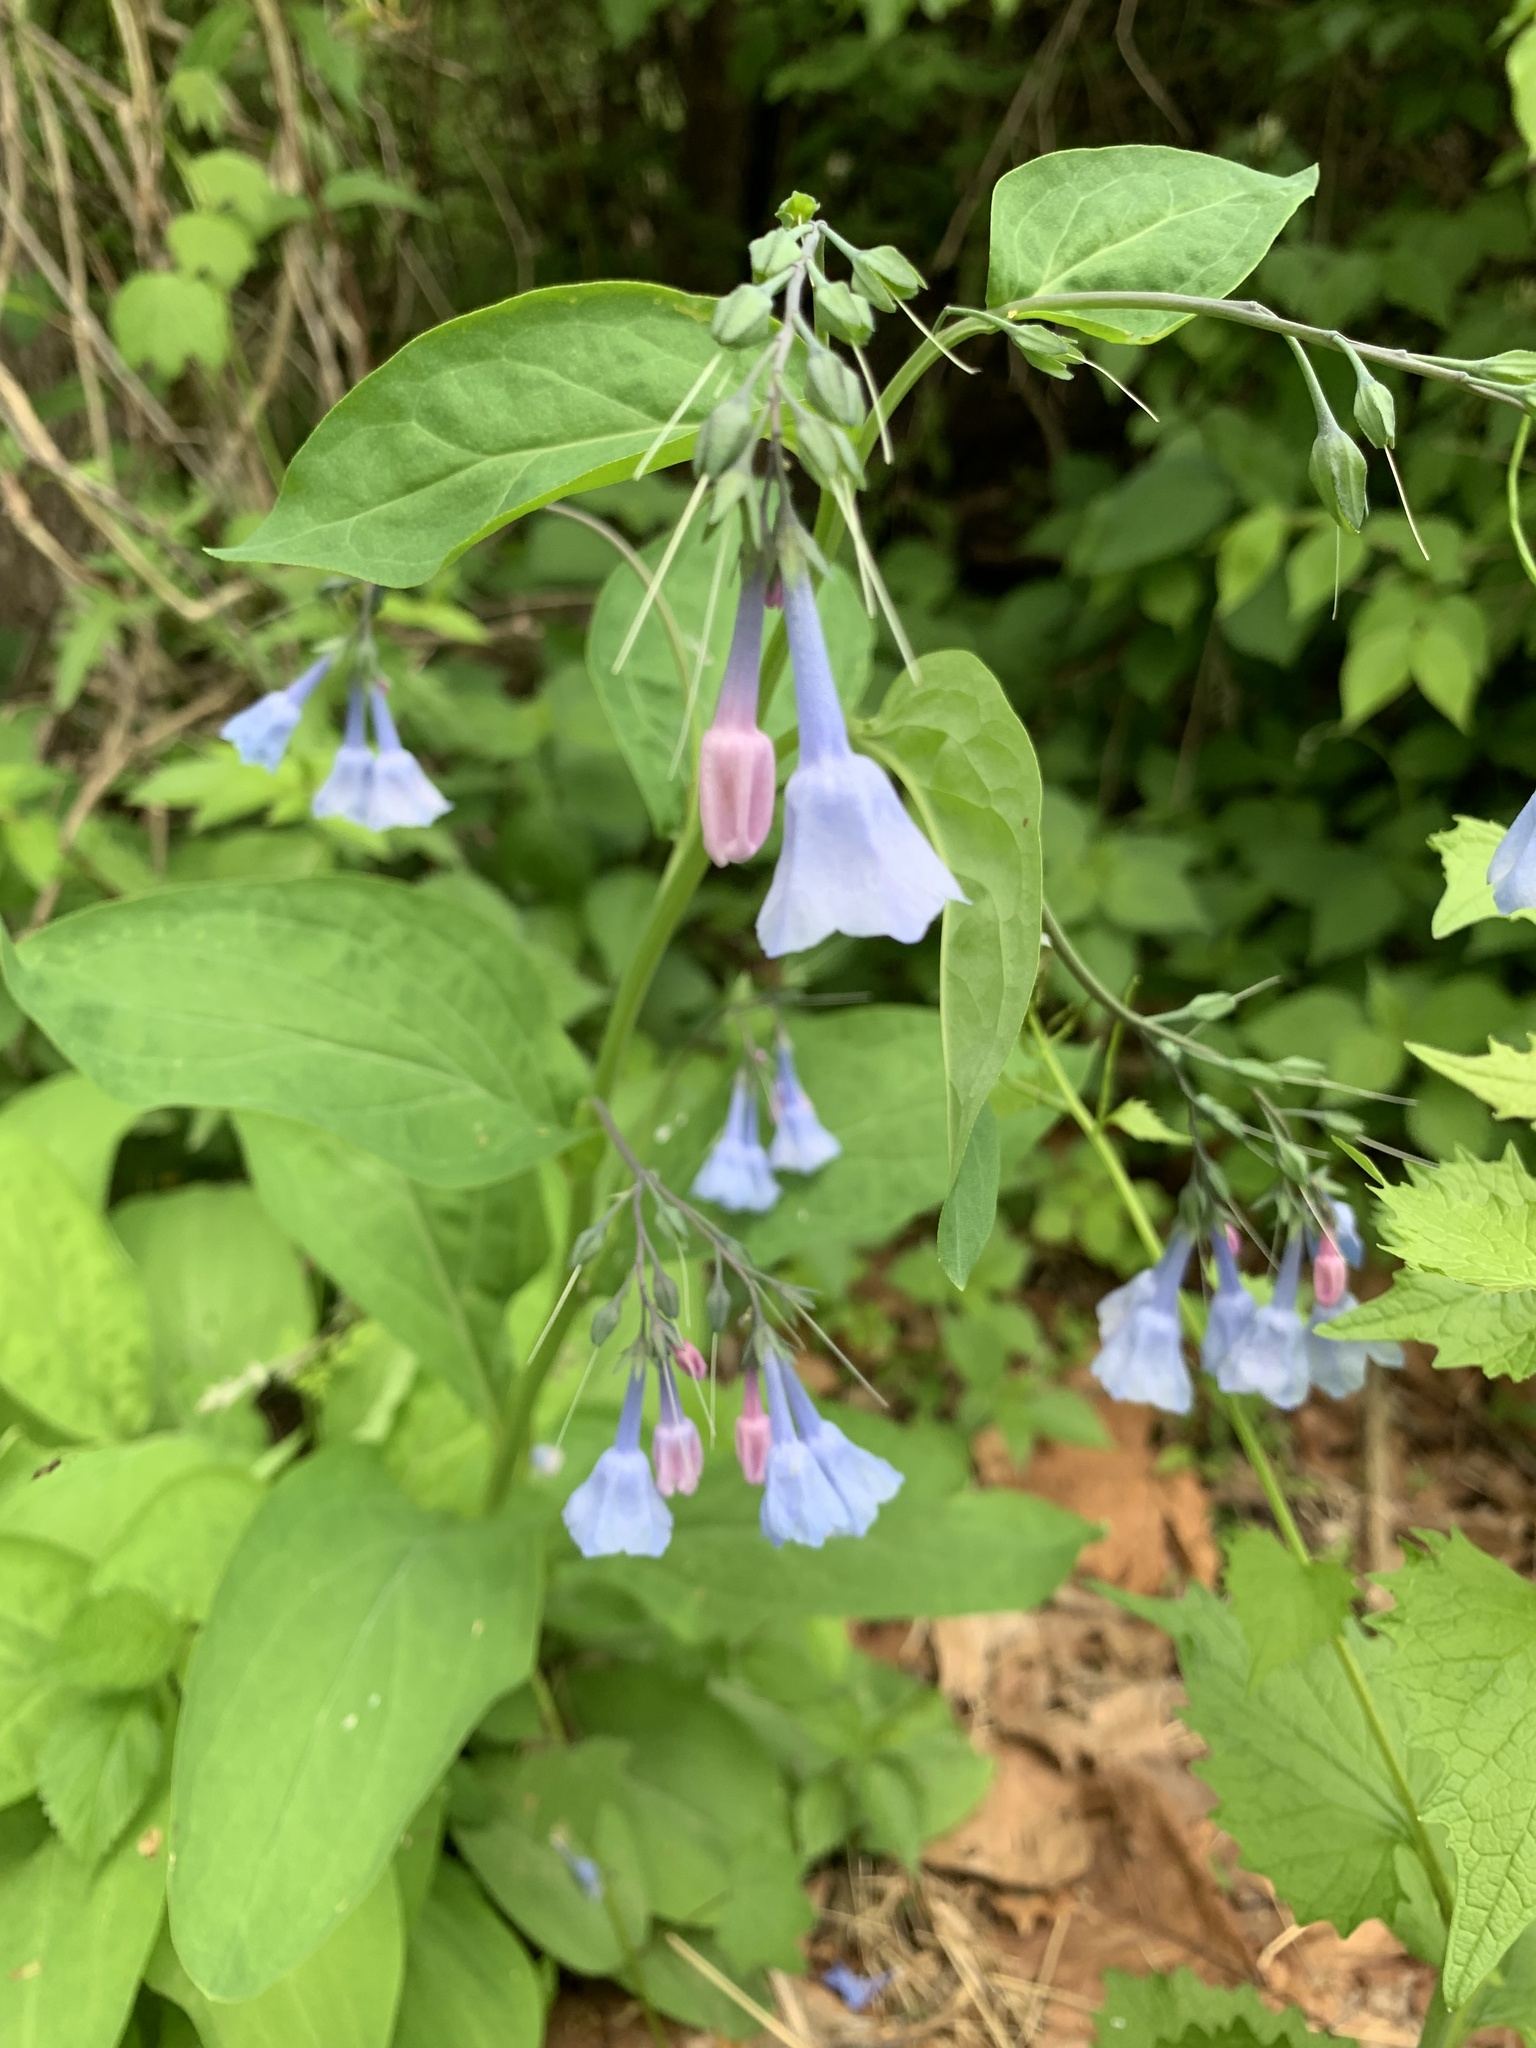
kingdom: Plantae
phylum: Tracheophyta
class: Magnoliopsida
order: Boraginales
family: Boraginaceae
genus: Mertensia
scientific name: Mertensia virginica
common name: Virginia bluebells
